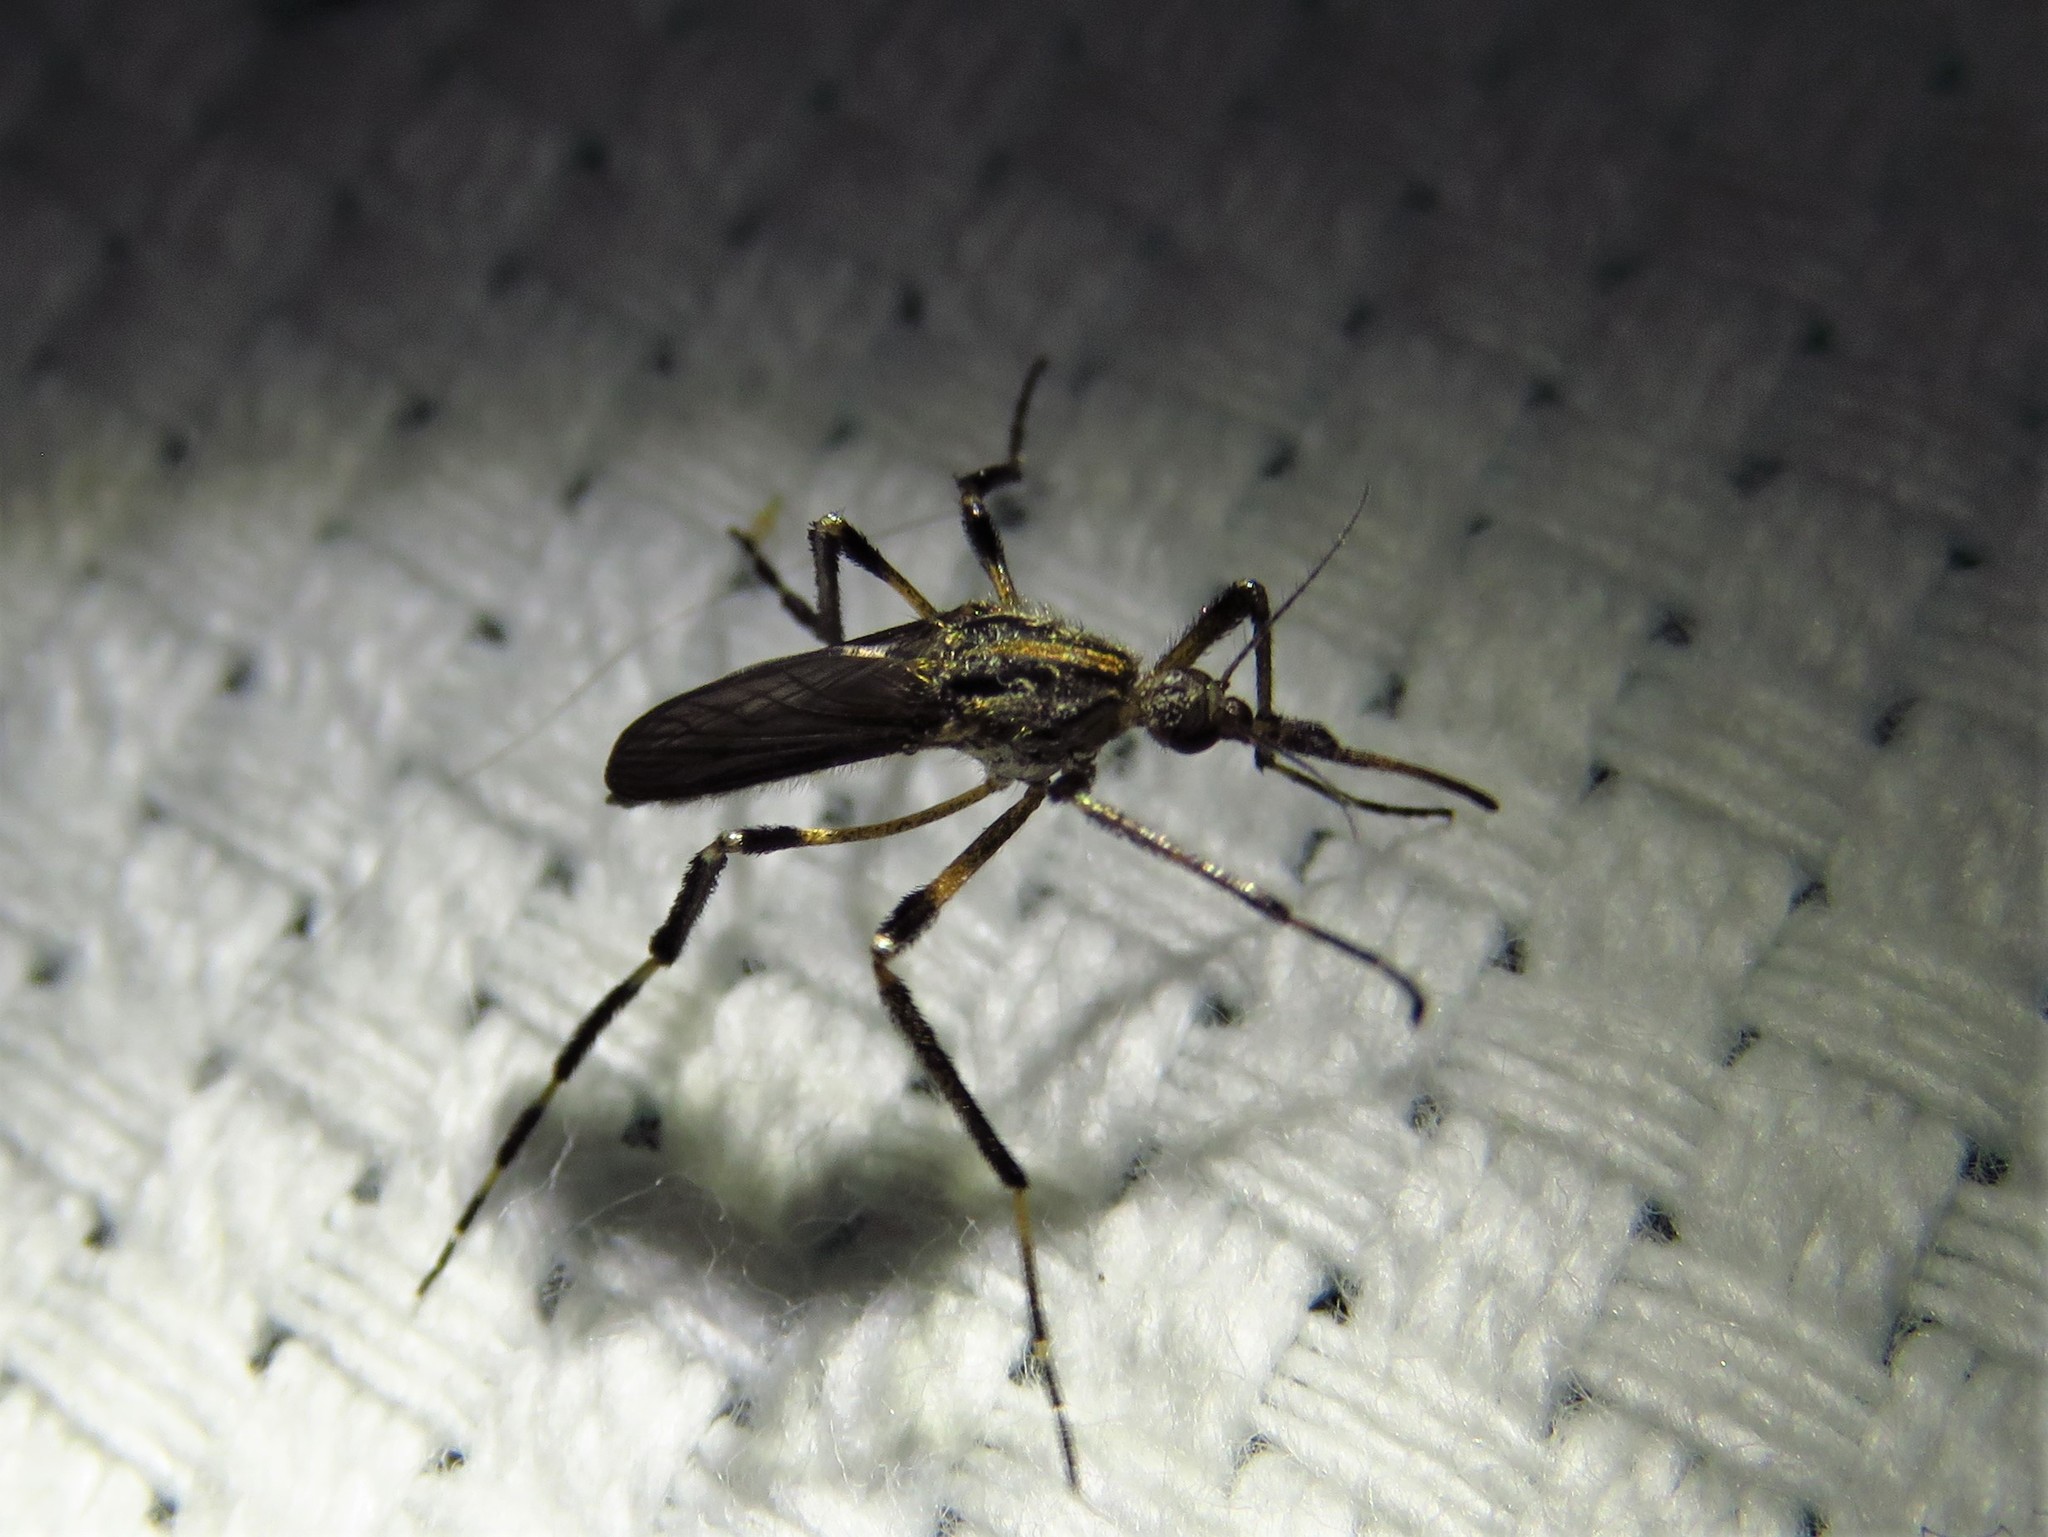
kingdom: Animalia
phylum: Arthropoda
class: Insecta
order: Diptera
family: Culicidae
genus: Psorophora
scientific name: Psorophora ciliata
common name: Gallinipper
